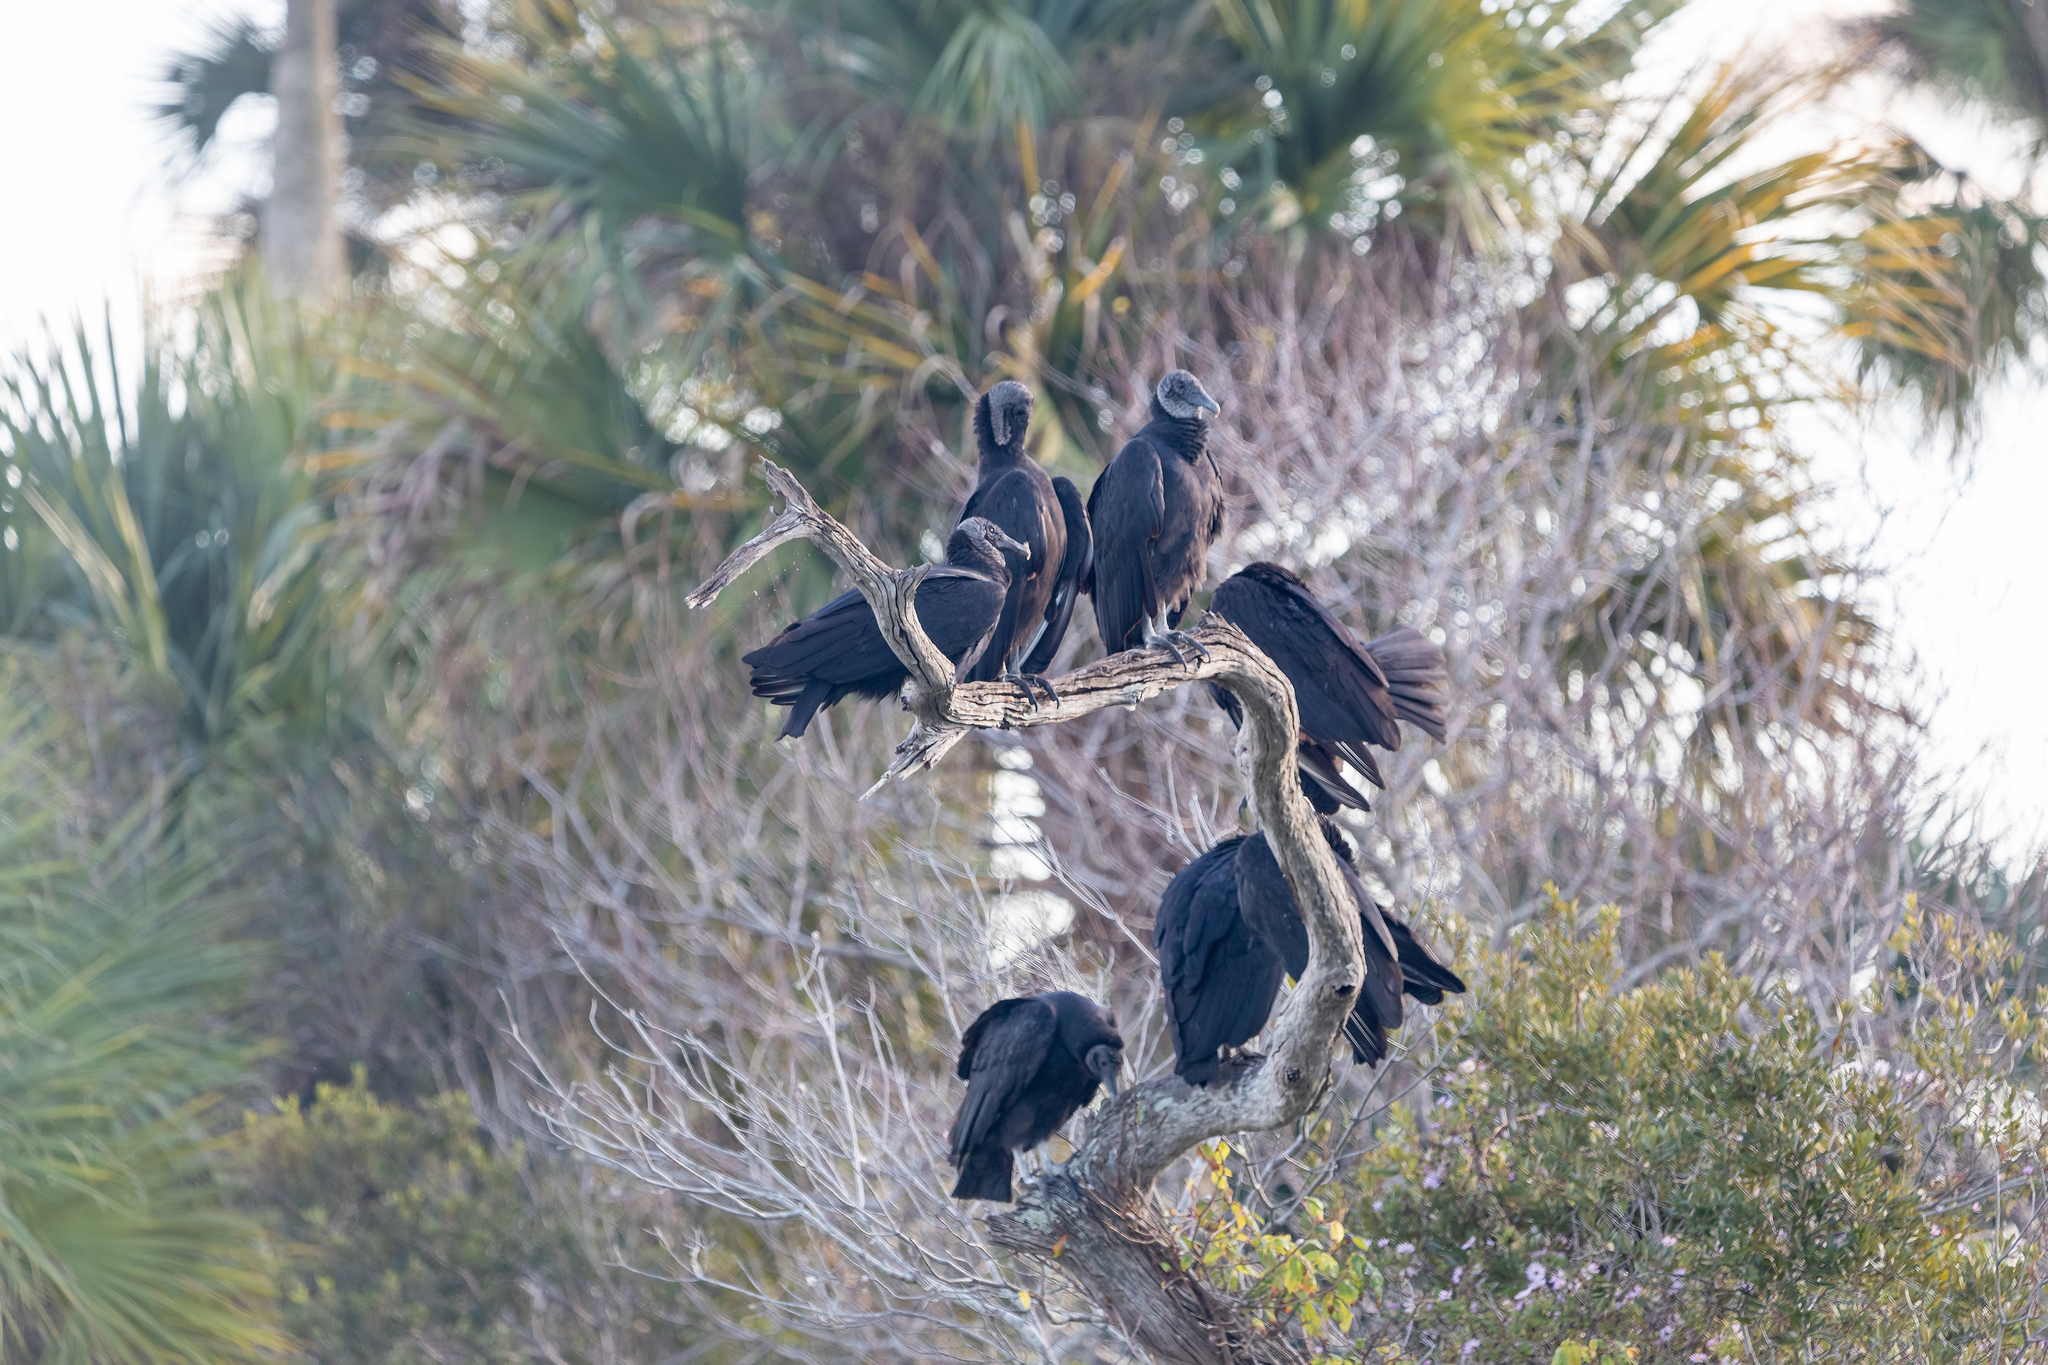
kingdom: Animalia
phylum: Chordata
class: Aves
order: Accipitriformes
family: Cathartidae
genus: Coragyps
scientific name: Coragyps atratus
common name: Black vulture
